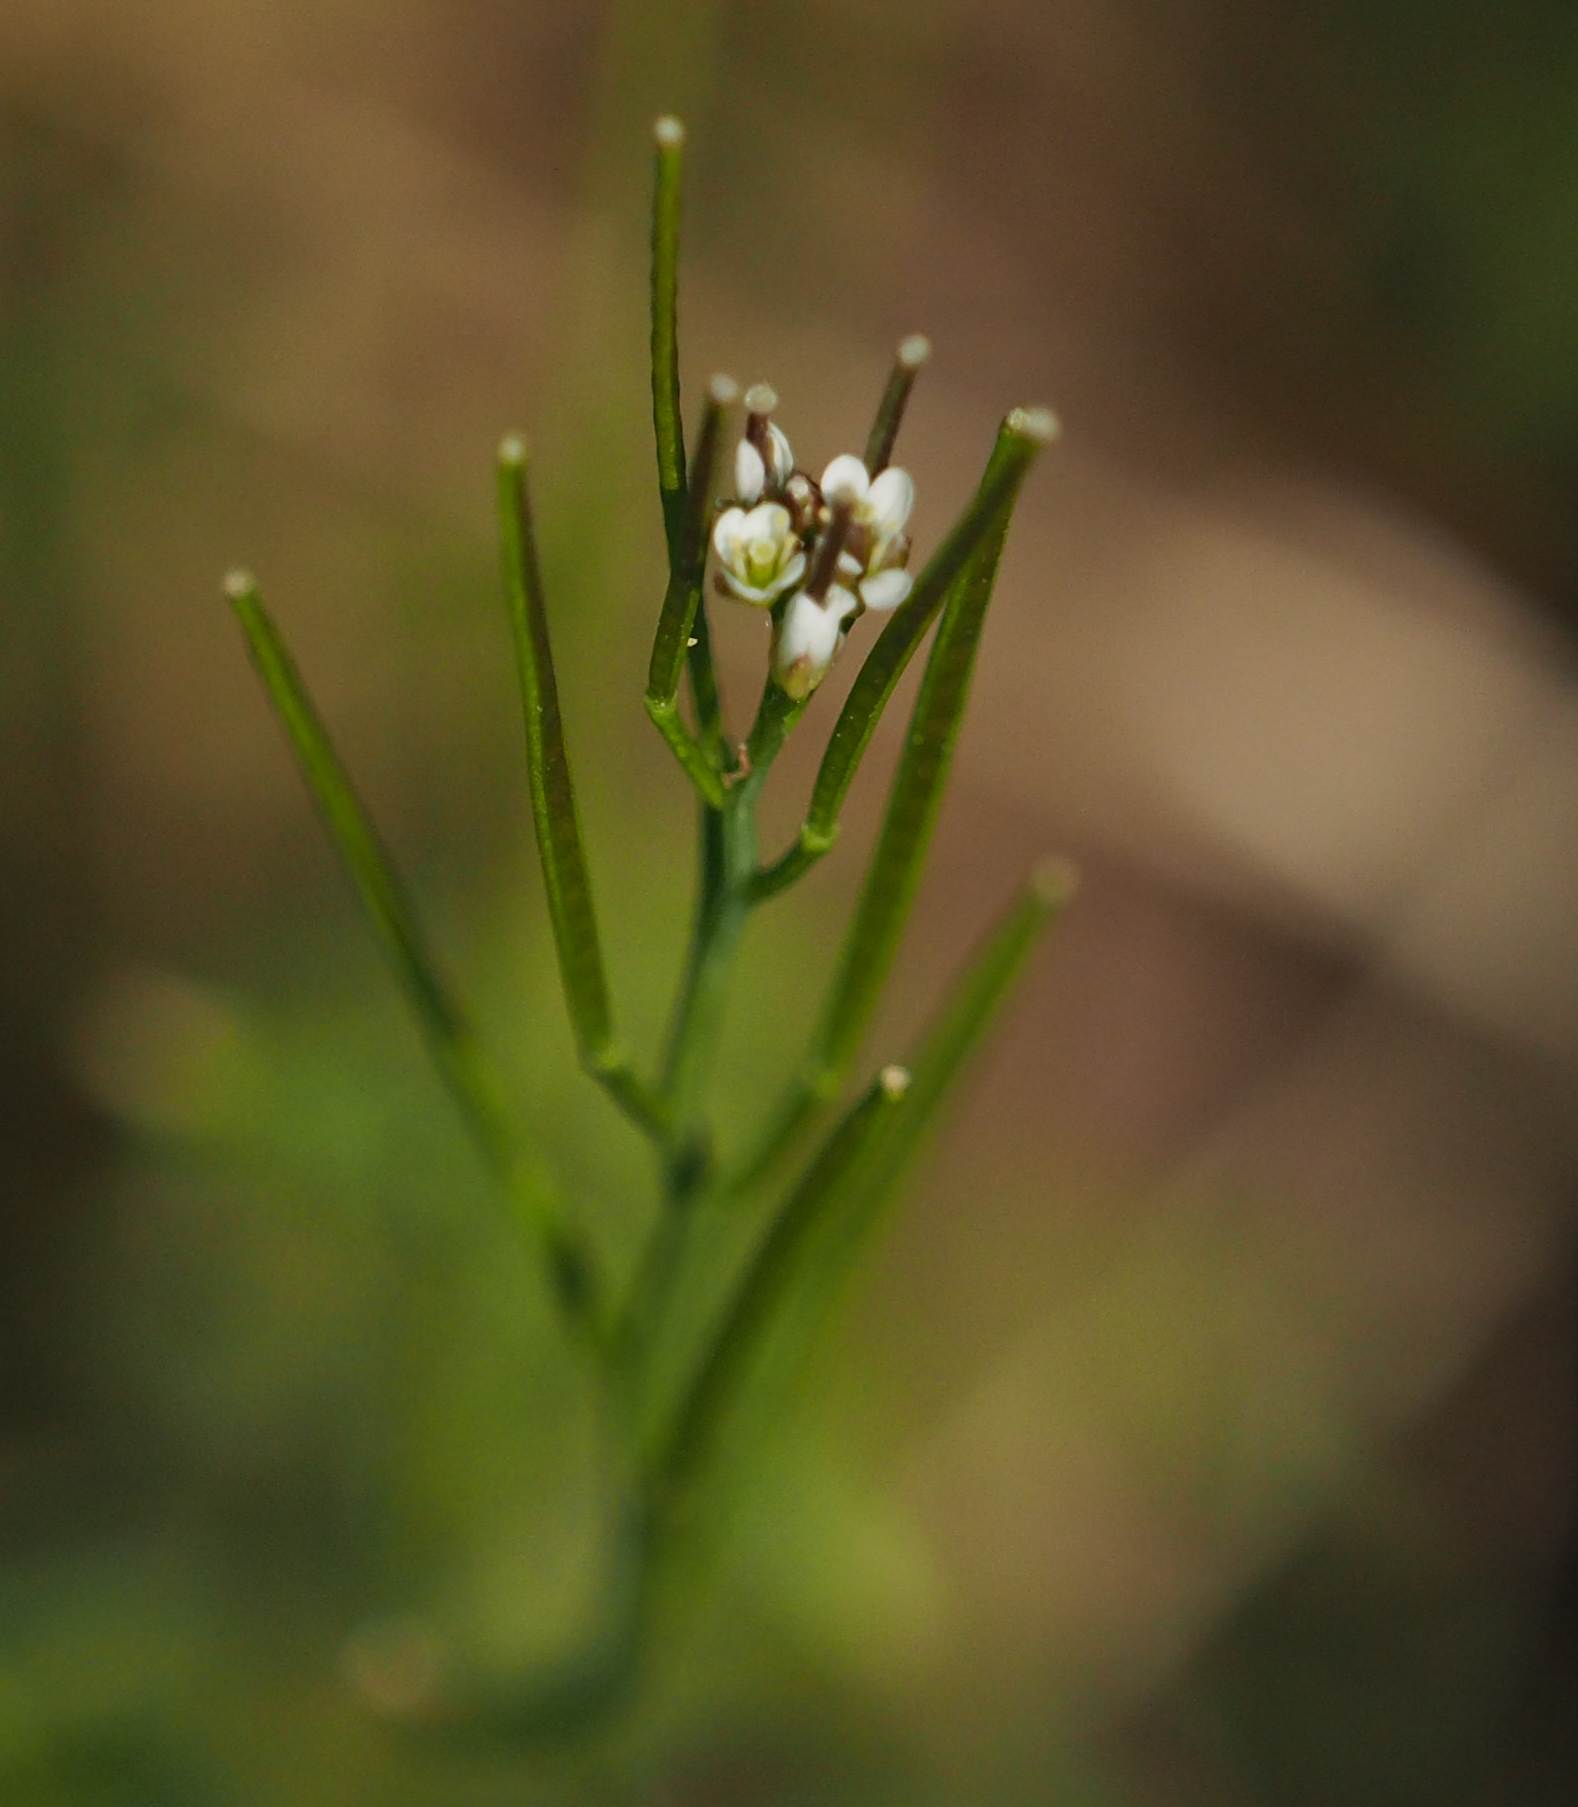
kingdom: Plantae
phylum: Tracheophyta
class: Magnoliopsida
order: Brassicales
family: Brassicaceae
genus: Cardamine
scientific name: Cardamine hirsuta
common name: Hairy bittercress
